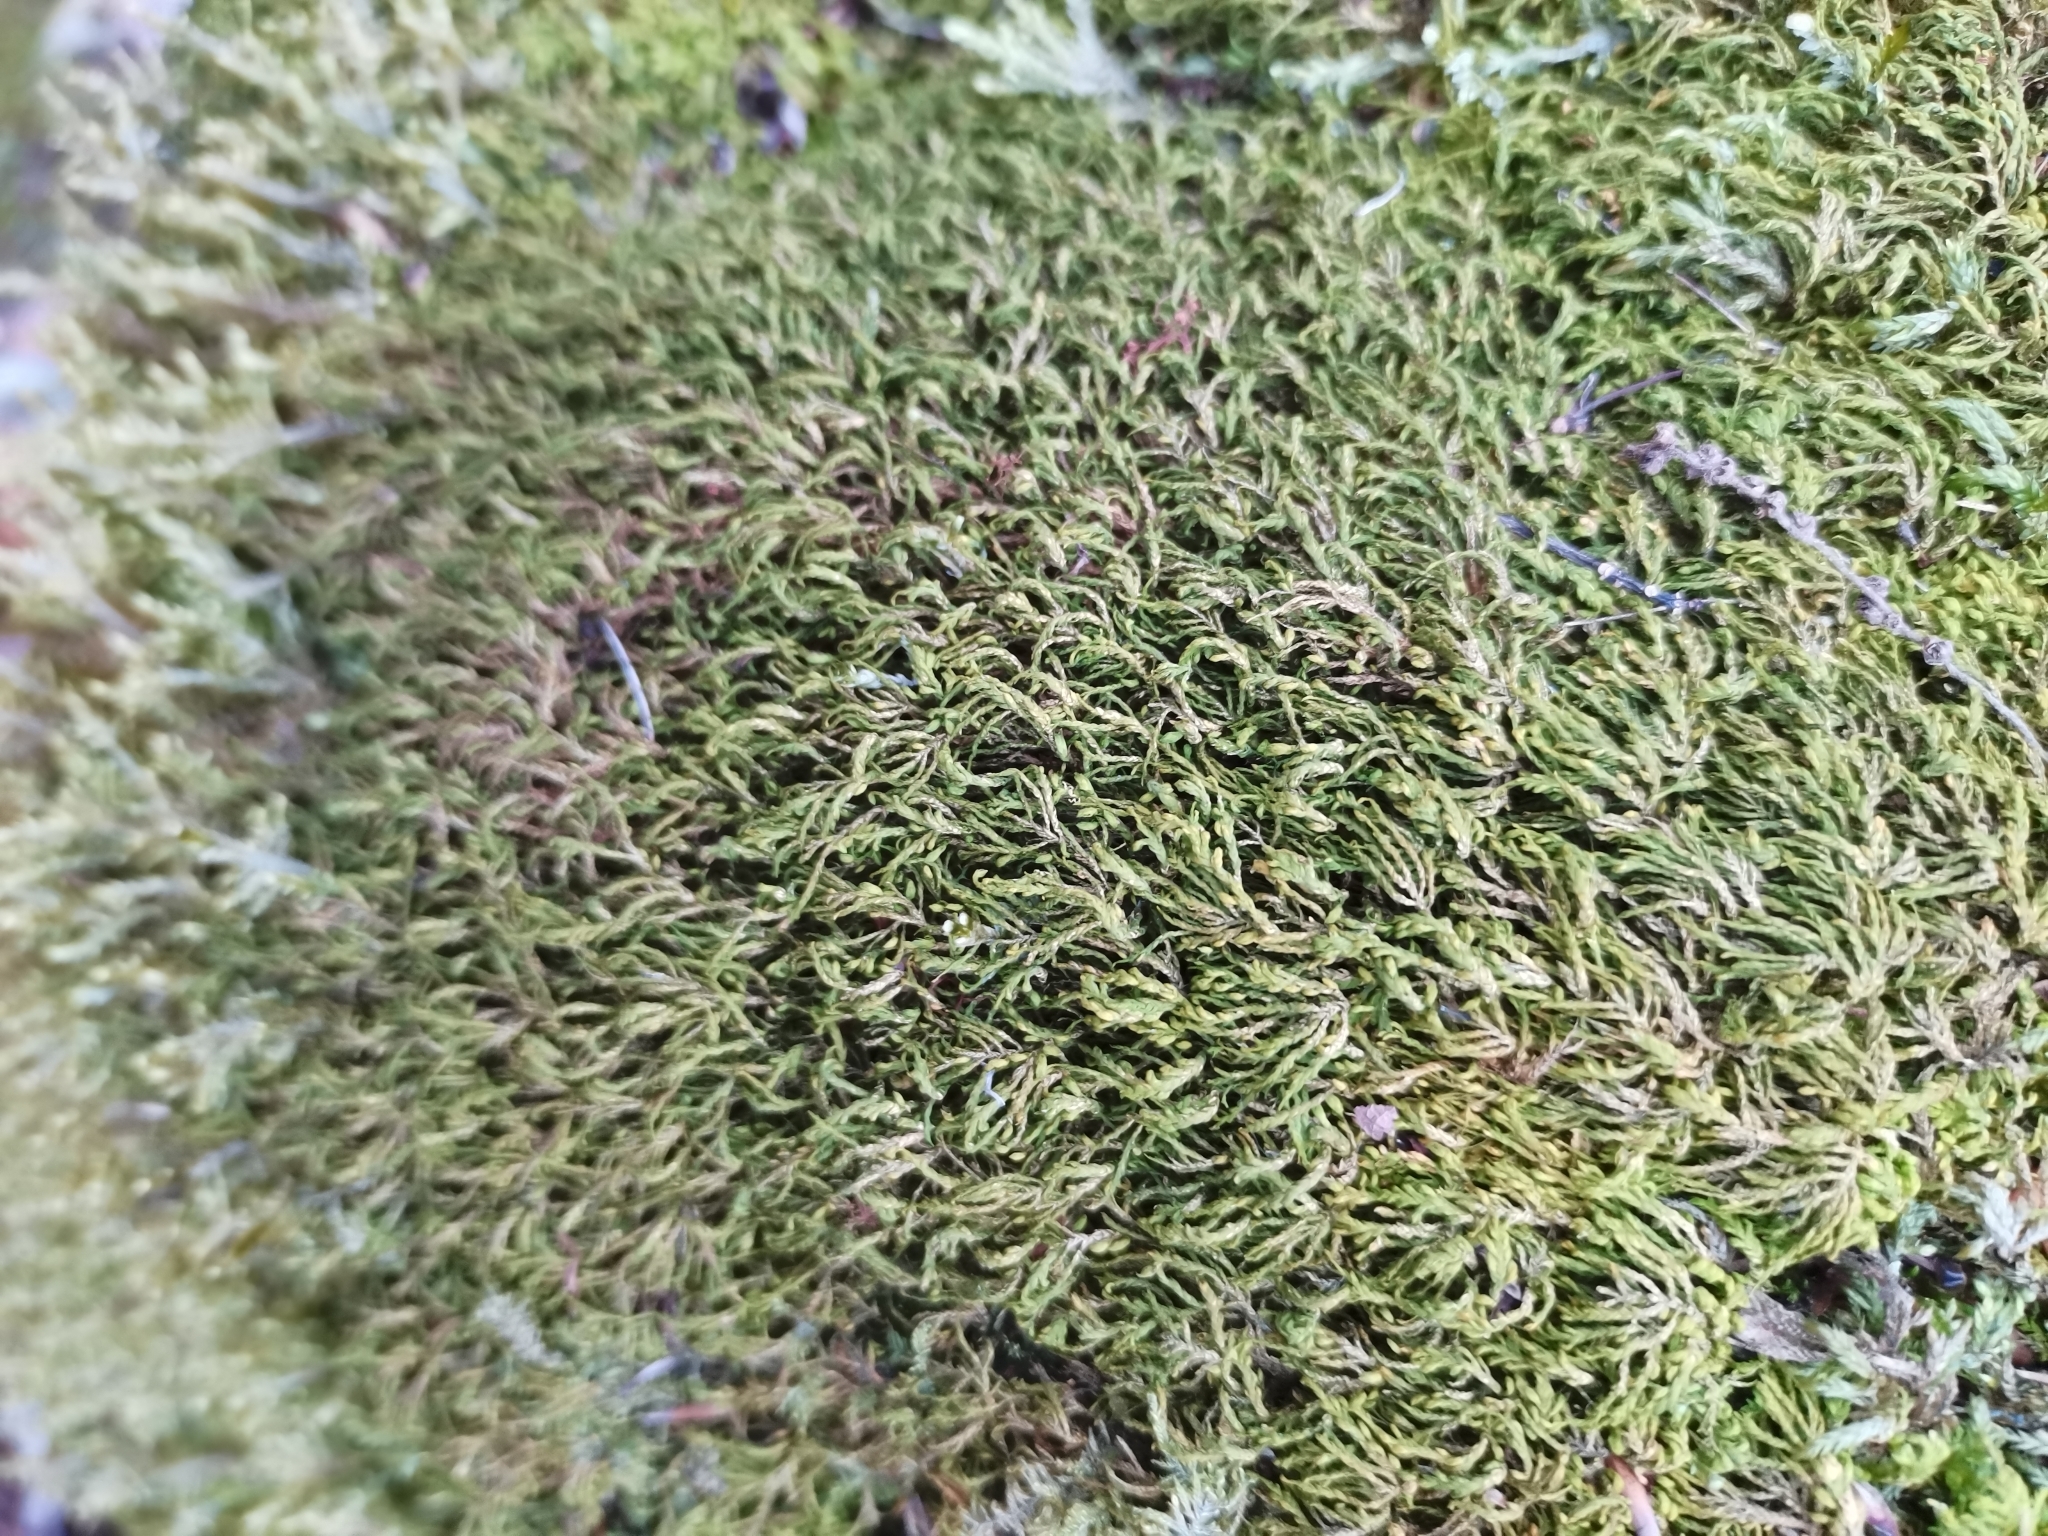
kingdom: Plantae
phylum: Bryophyta
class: Bryopsida
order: Hypnales
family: Neckeraceae
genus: Pseudanomodon
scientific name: Pseudanomodon attenuatus
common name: Tree-skirt moss
